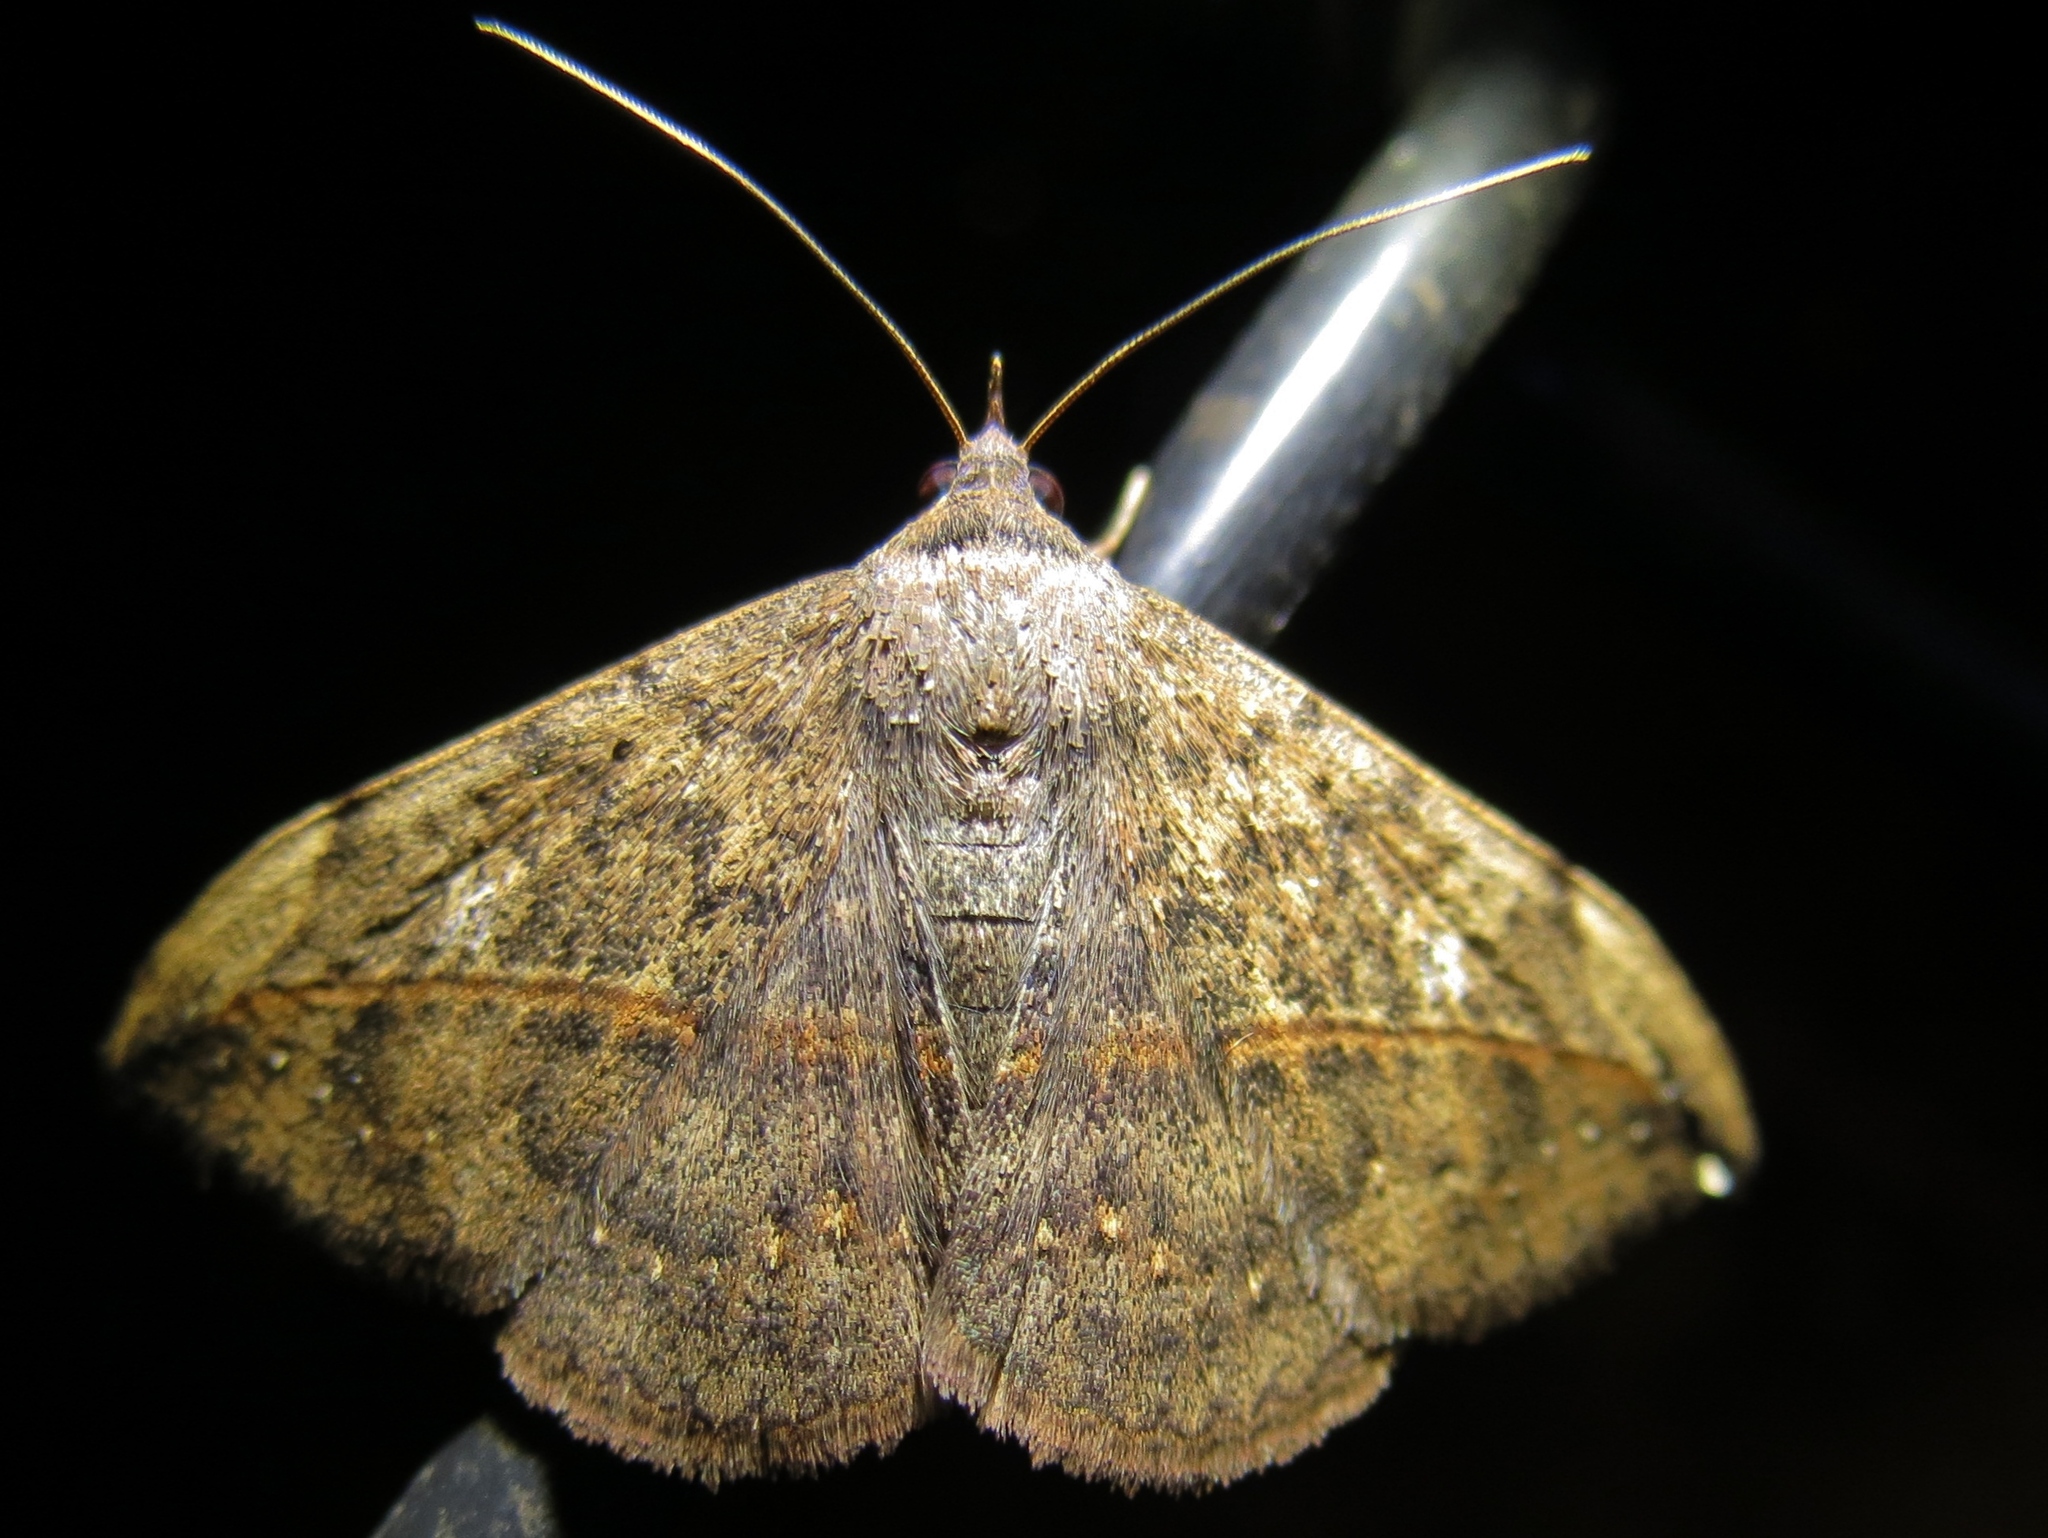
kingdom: Animalia
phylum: Arthropoda
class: Insecta
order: Lepidoptera
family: Erebidae
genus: Anticarsia
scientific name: Anticarsia gemmatalis
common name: Cutworm moth
